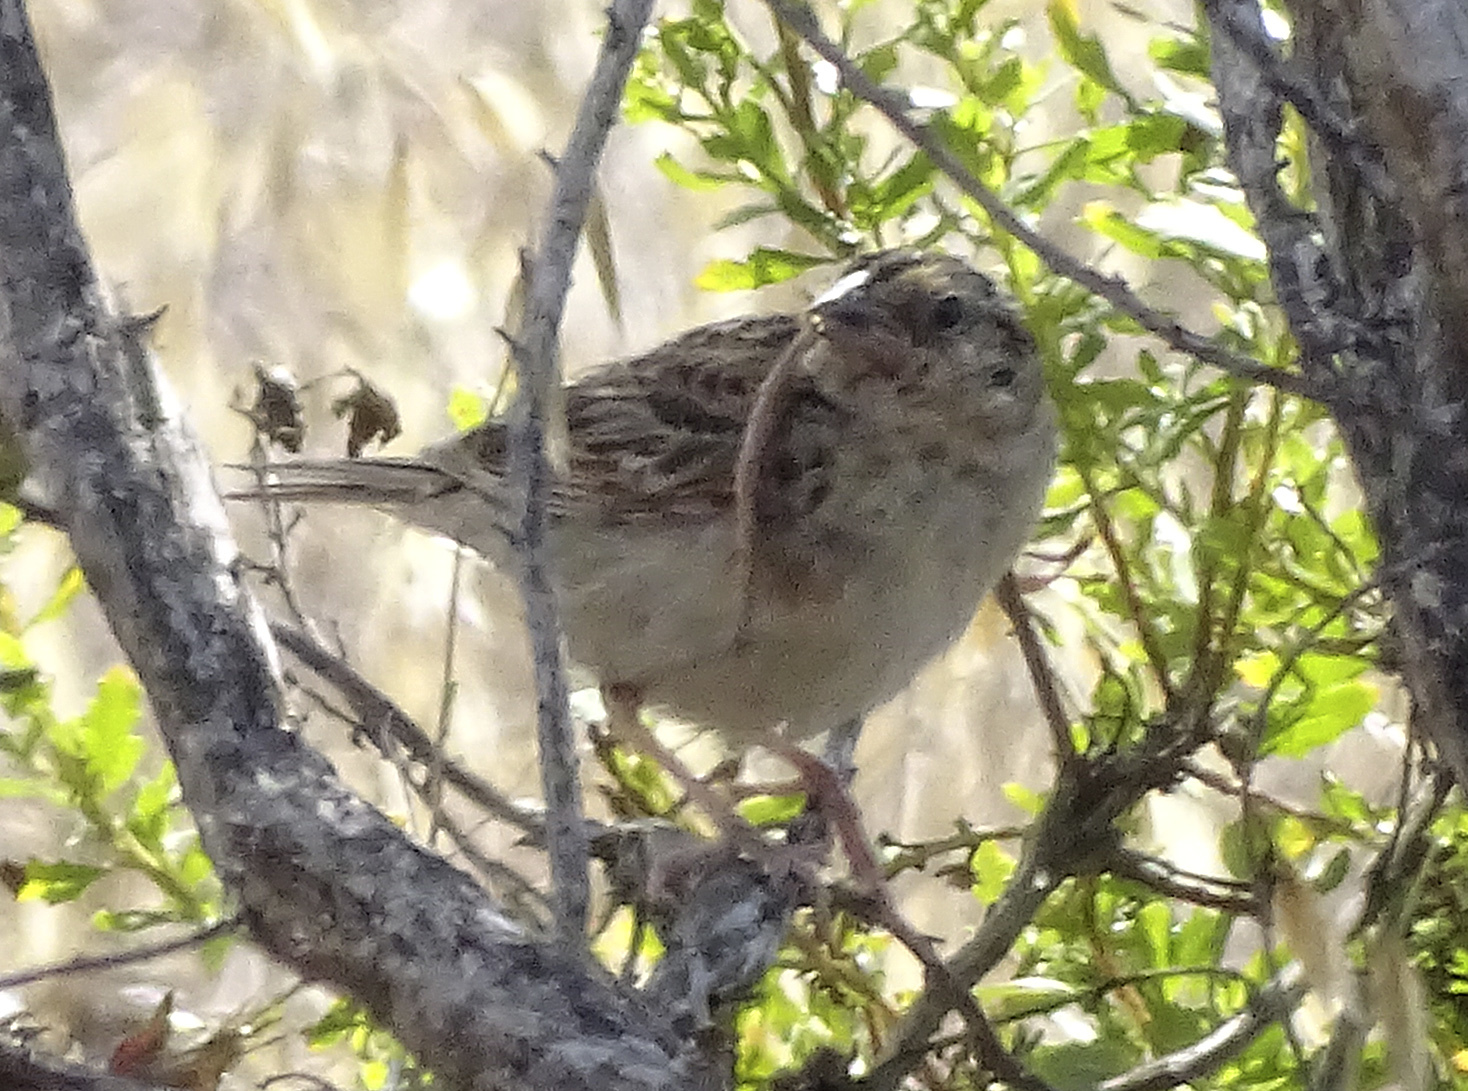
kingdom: Animalia
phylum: Chordata
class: Aves
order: Passeriformes
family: Passerellidae
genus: Ammodramus
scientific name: Ammodramus savannarum
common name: Grasshopper sparrow
